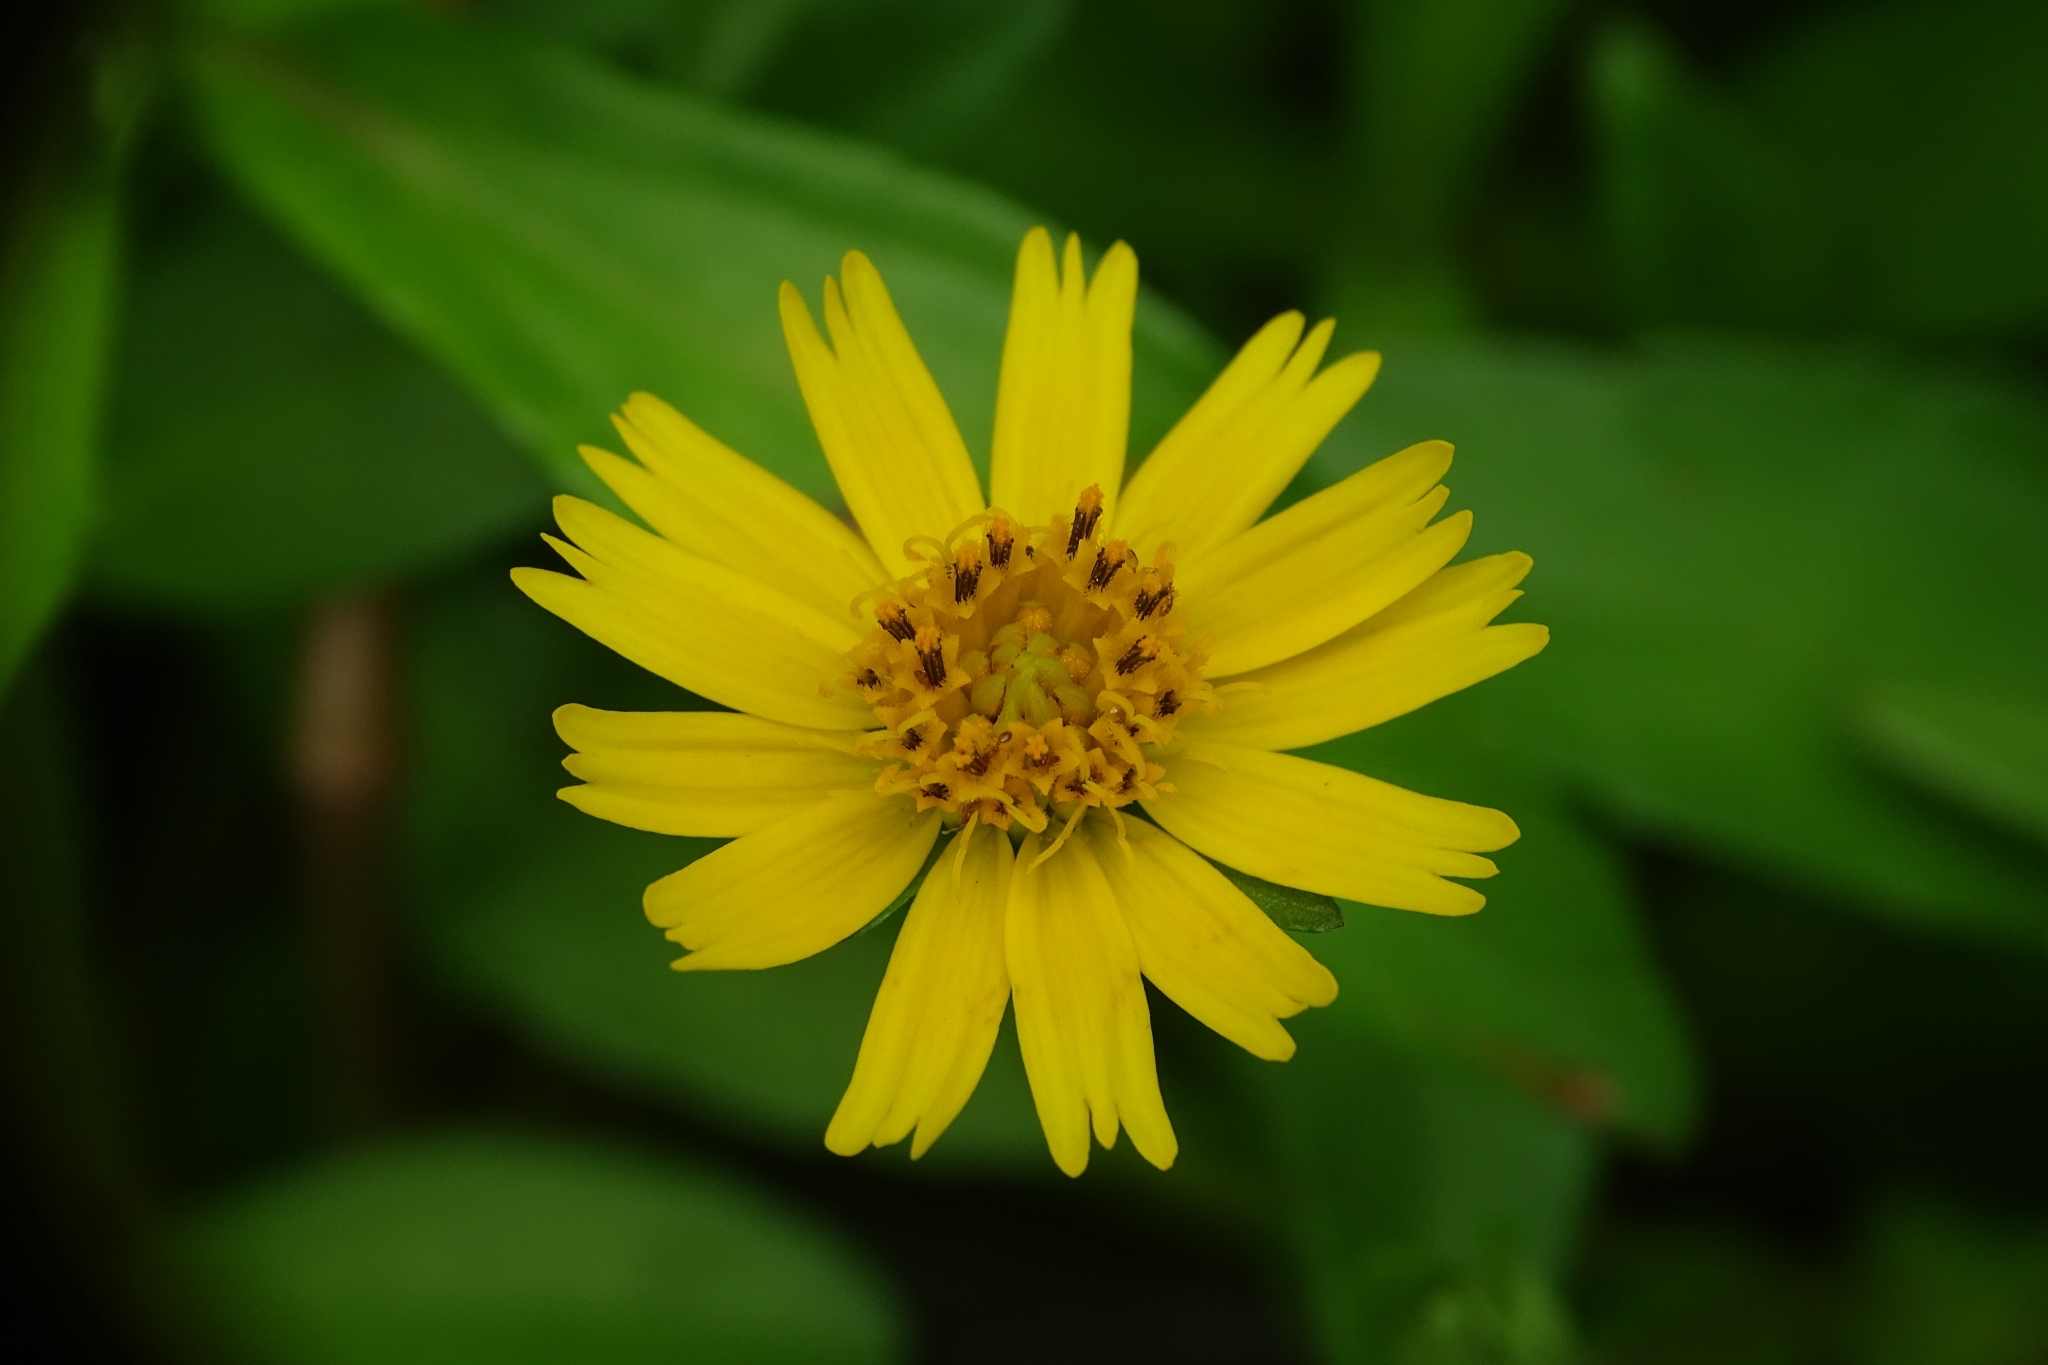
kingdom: Plantae
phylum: Tracheophyta
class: Magnoliopsida
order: Asterales
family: Asteraceae
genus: Sphagneticola
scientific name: Sphagneticola trilobata
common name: Bay biscayne creeping-oxeye
